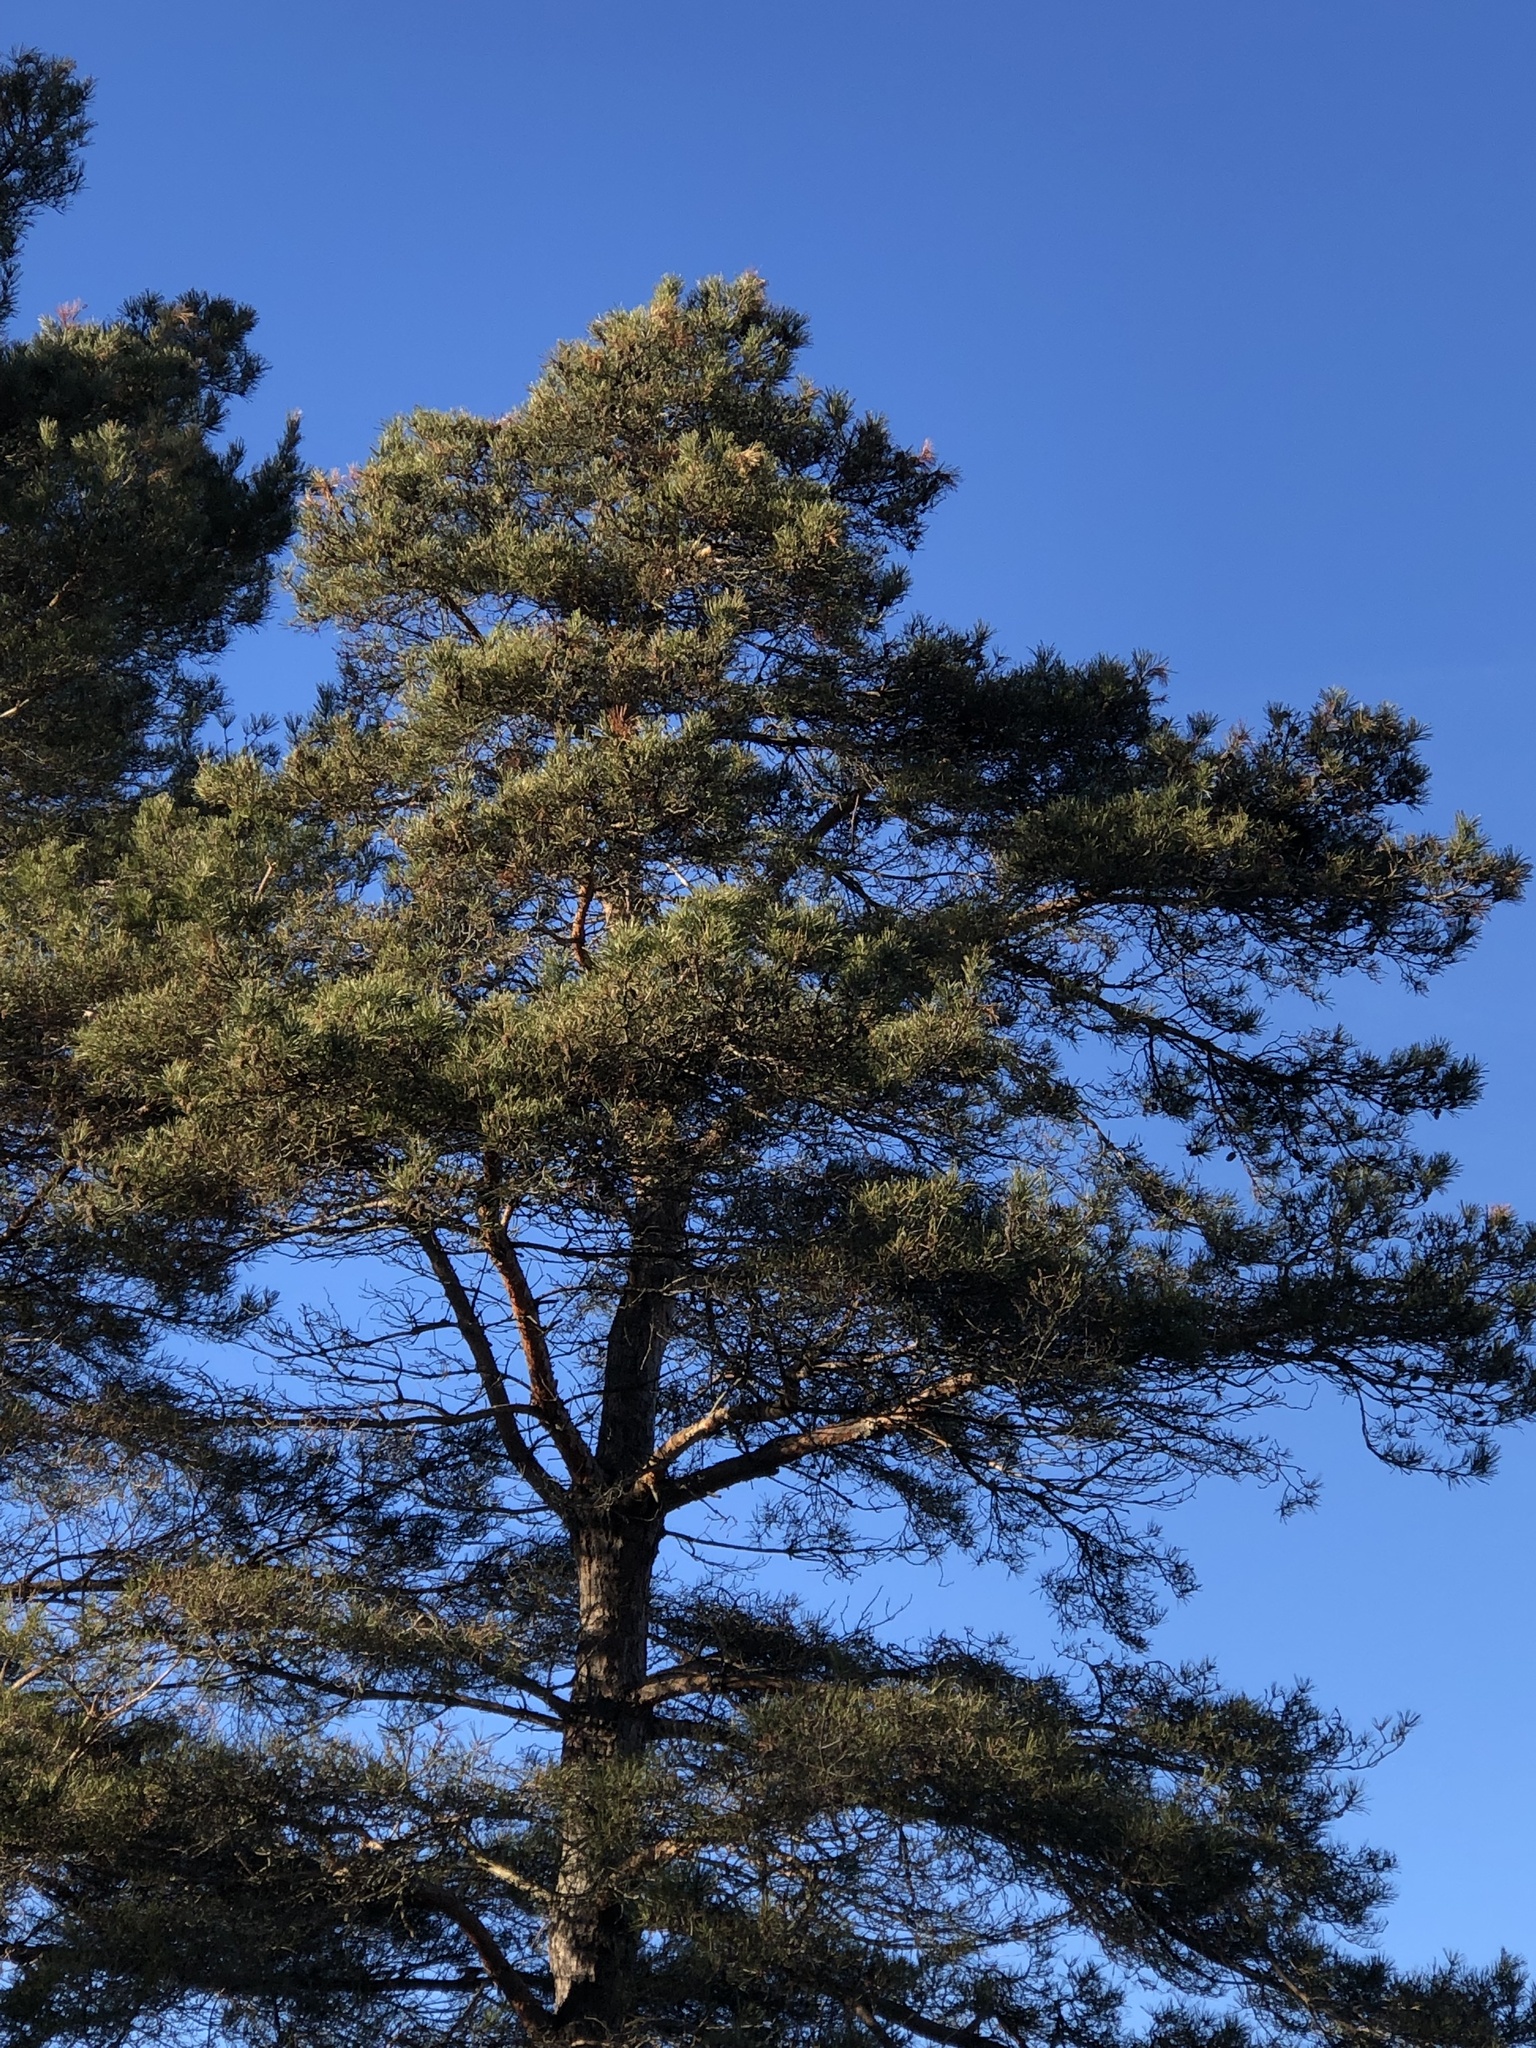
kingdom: Plantae
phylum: Tracheophyta
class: Pinopsida
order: Pinales
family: Pinaceae
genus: Pinus
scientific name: Pinus sylvestris
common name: Scots pine
